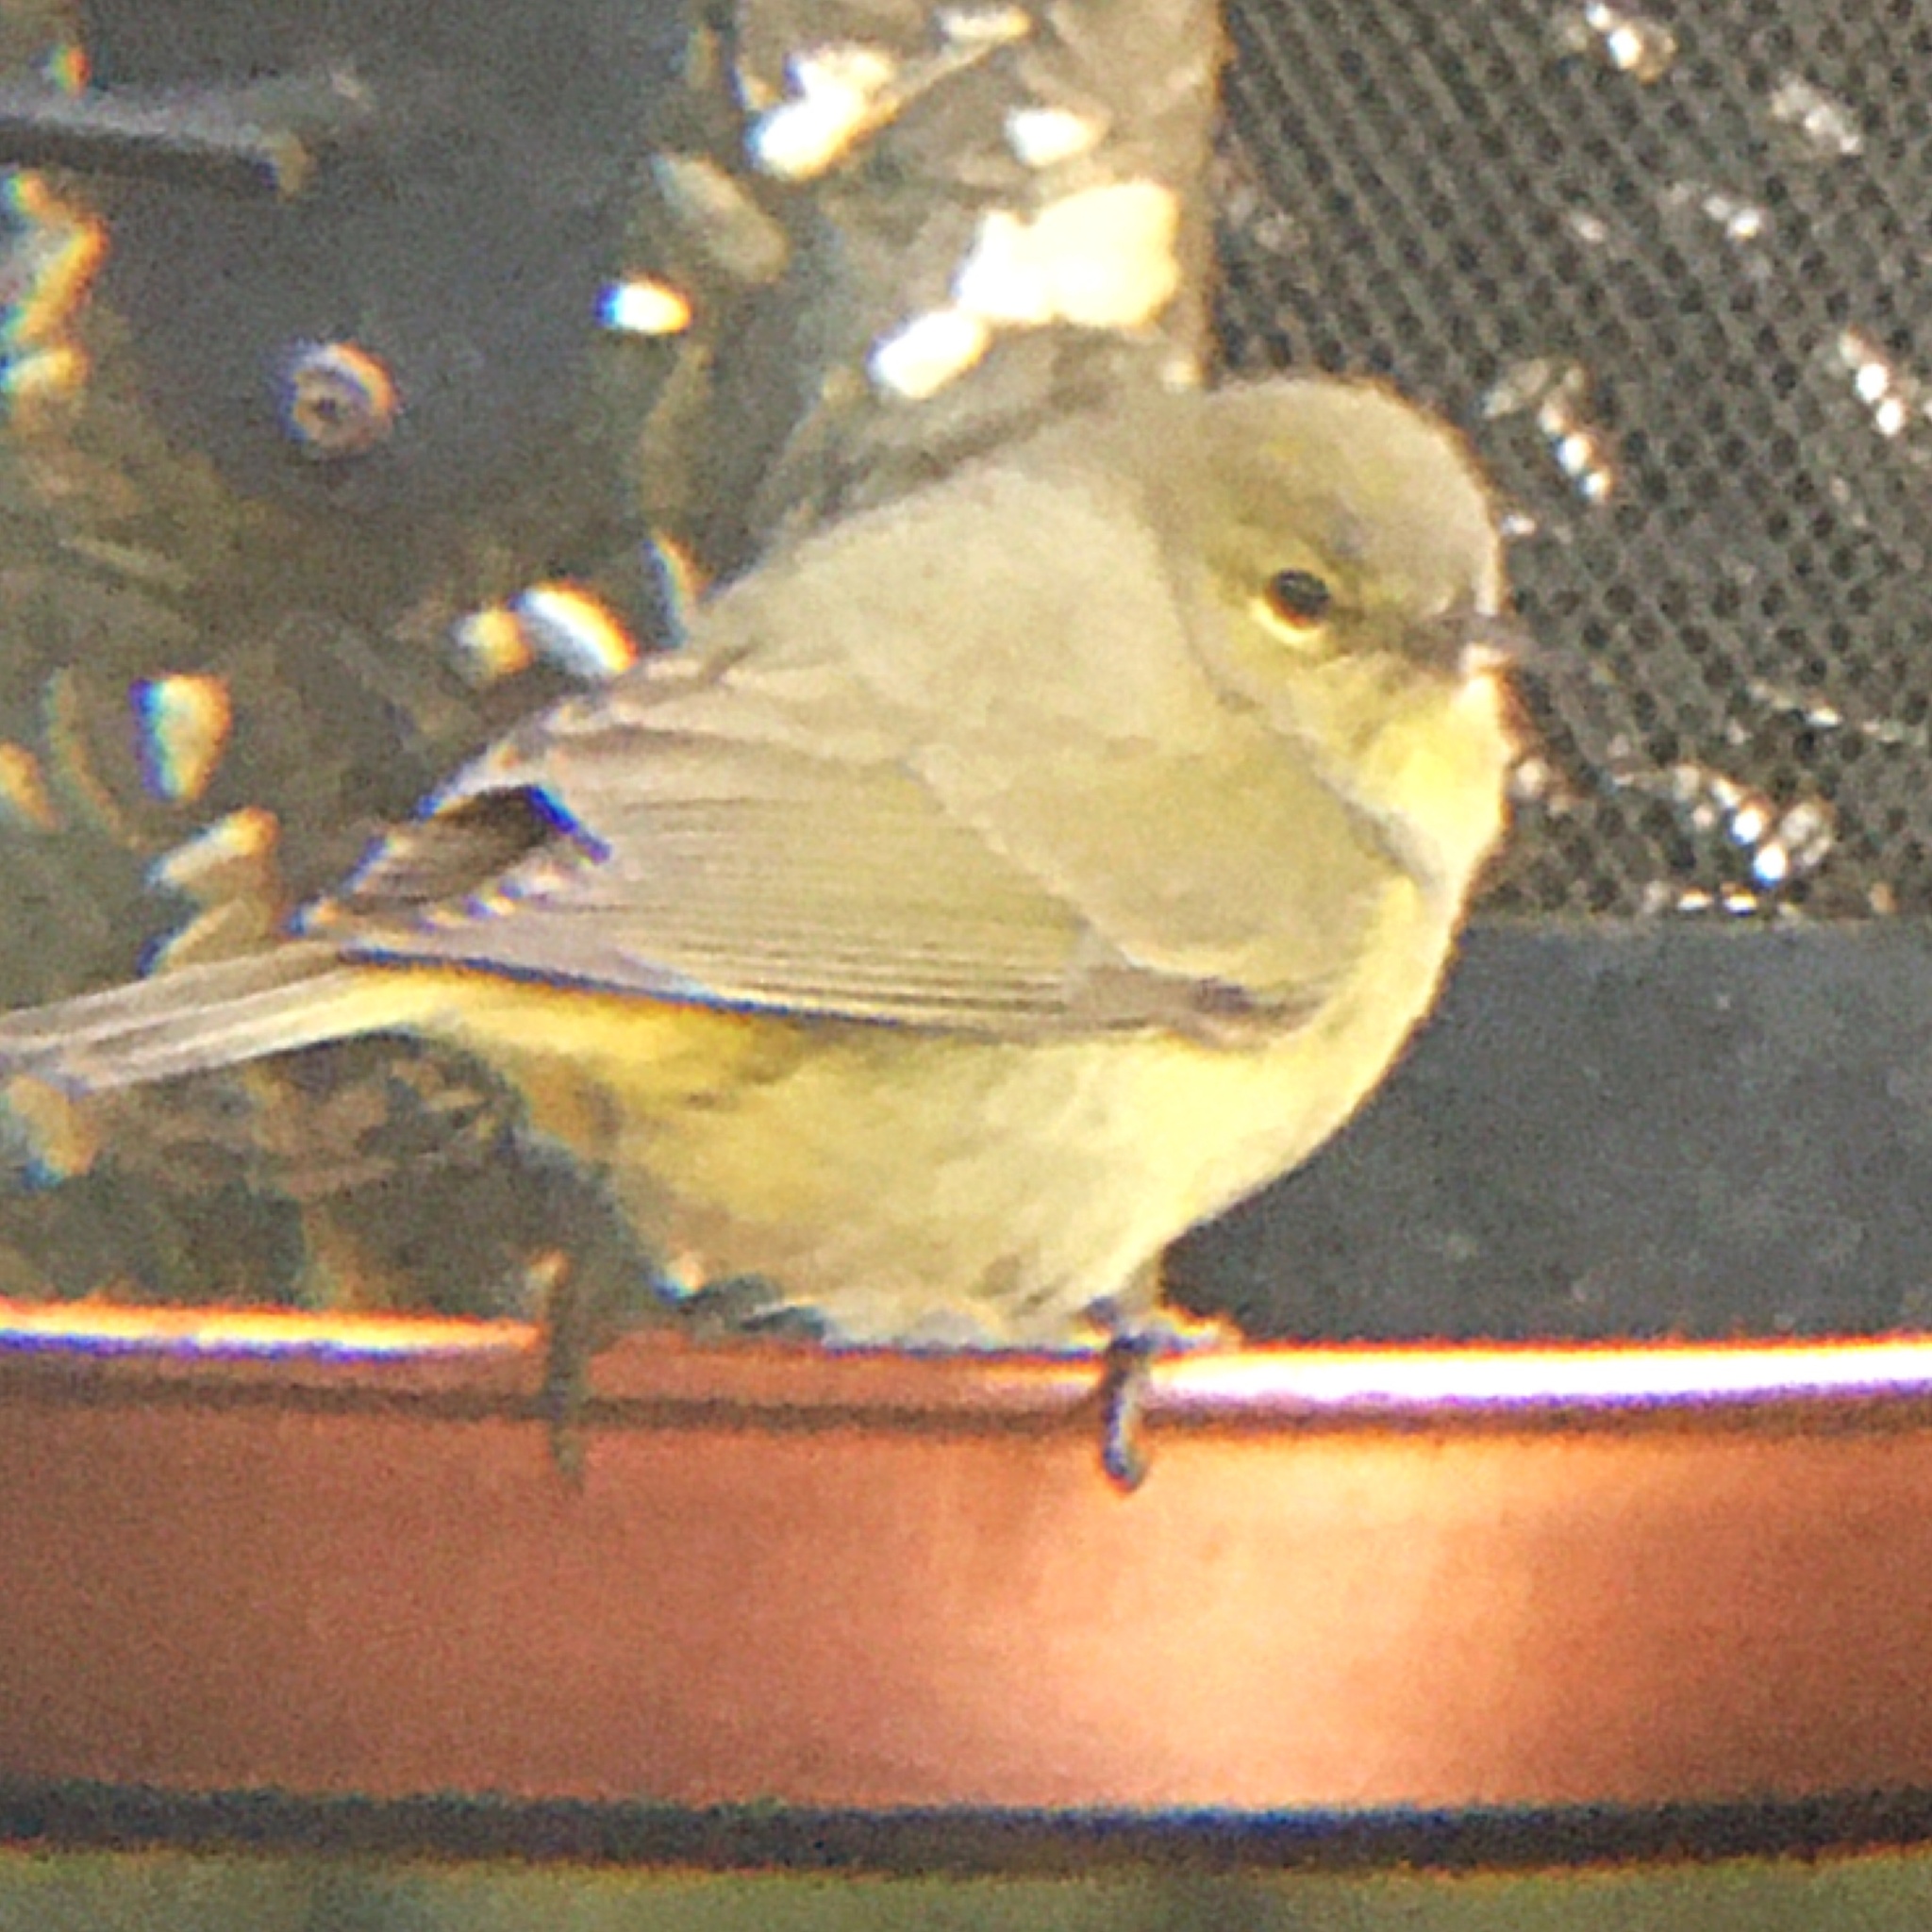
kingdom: Animalia
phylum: Chordata
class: Aves
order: Passeriformes
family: Parulidae
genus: Leiothlypis
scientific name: Leiothlypis celata
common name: Orange-crowned warbler
